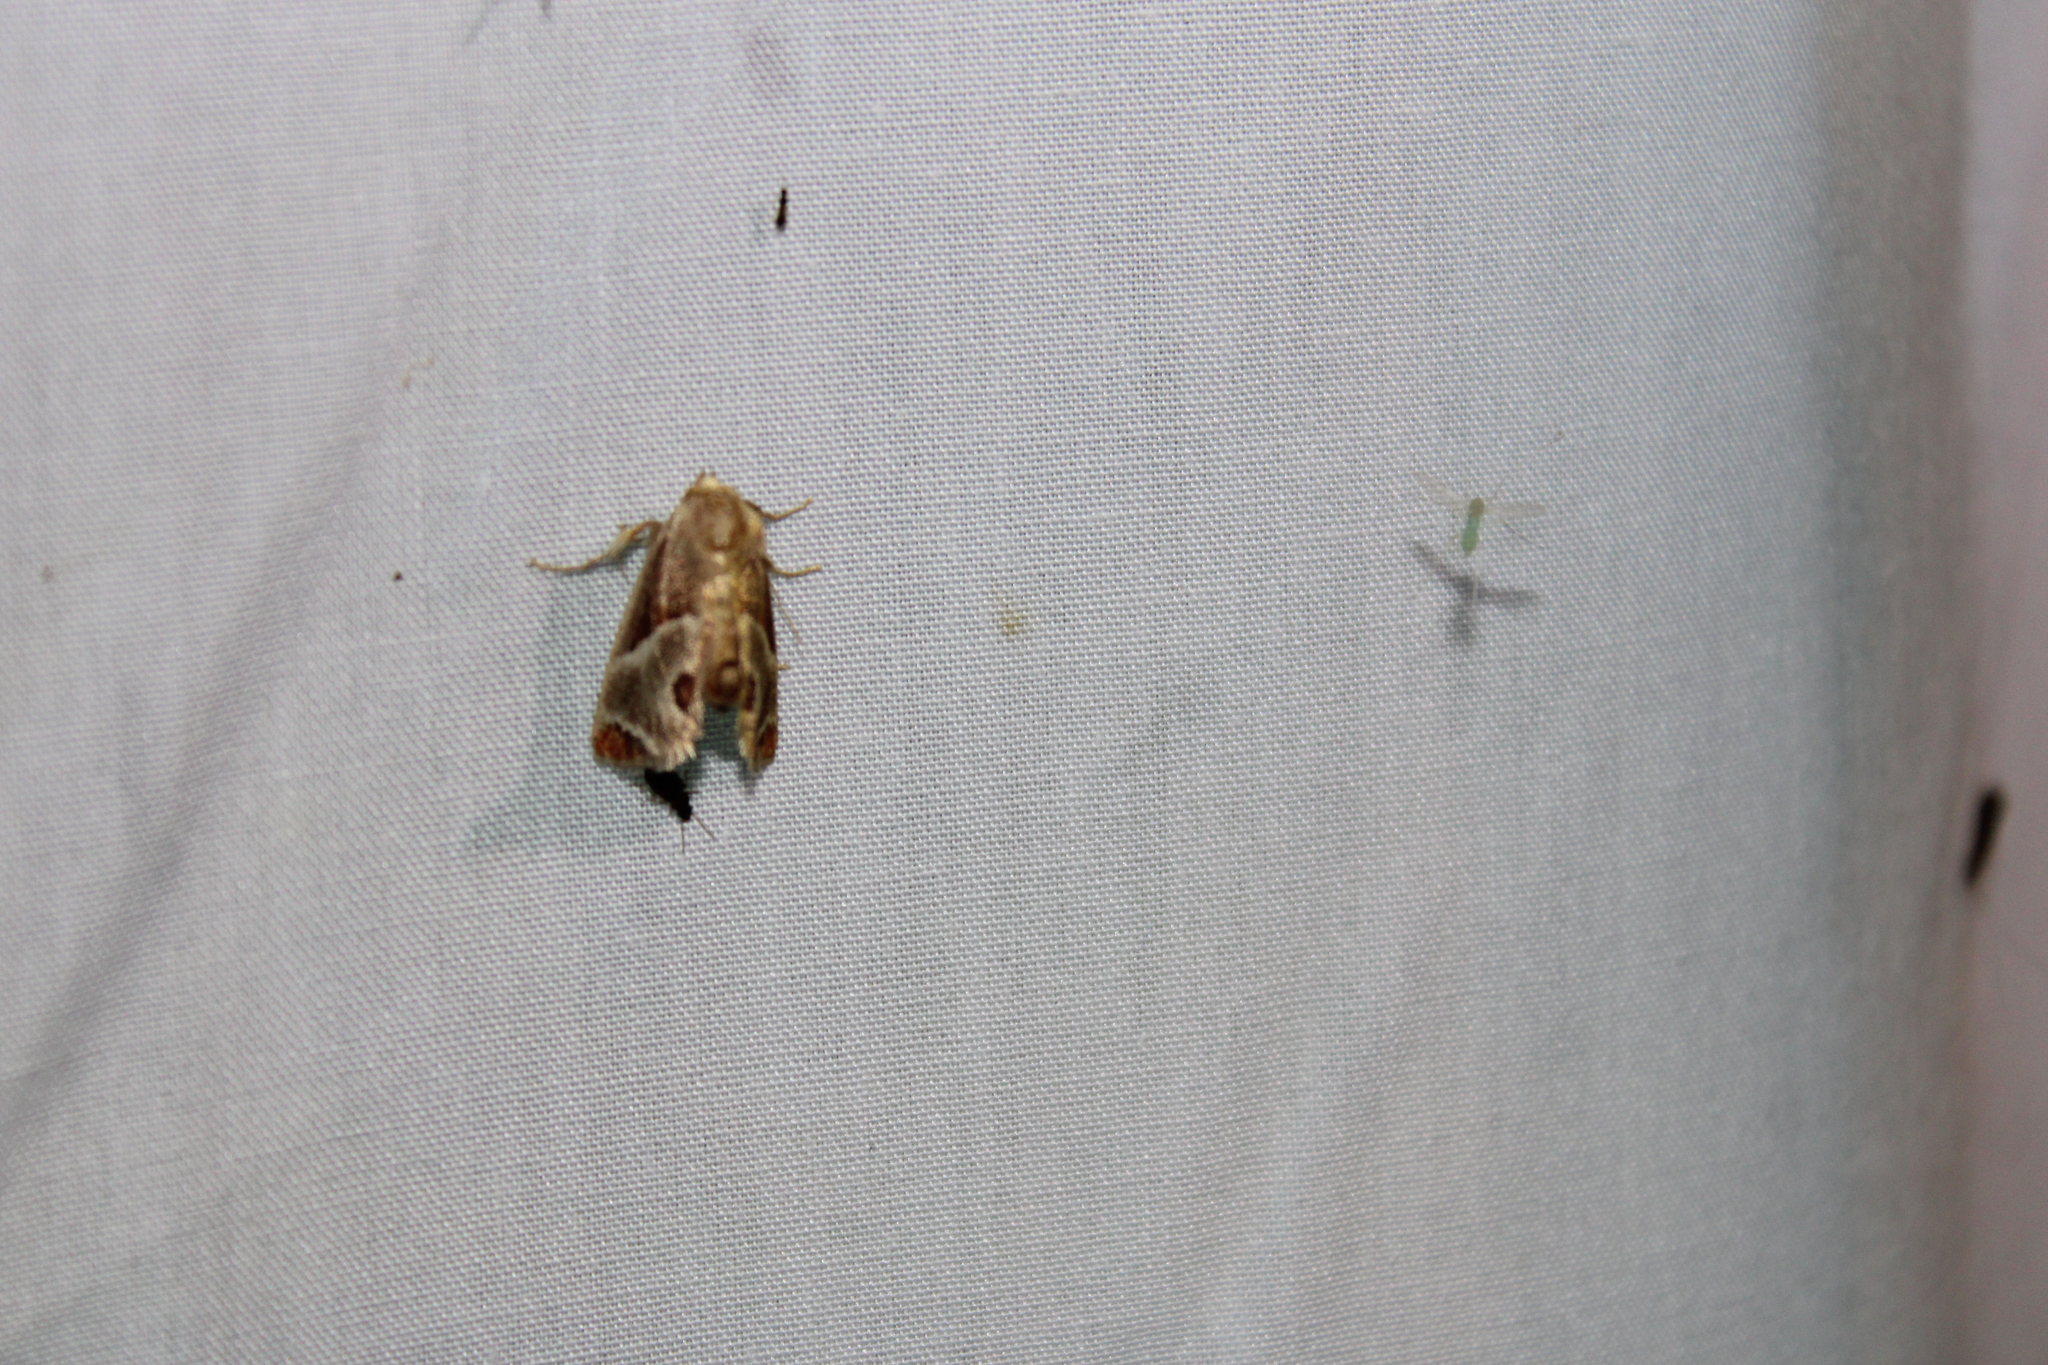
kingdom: Animalia
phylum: Arthropoda
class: Insecta
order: Lepidoptera
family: Limacodidae
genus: Apoda
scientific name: Apoda biguttata
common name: Shagreened slug moth
